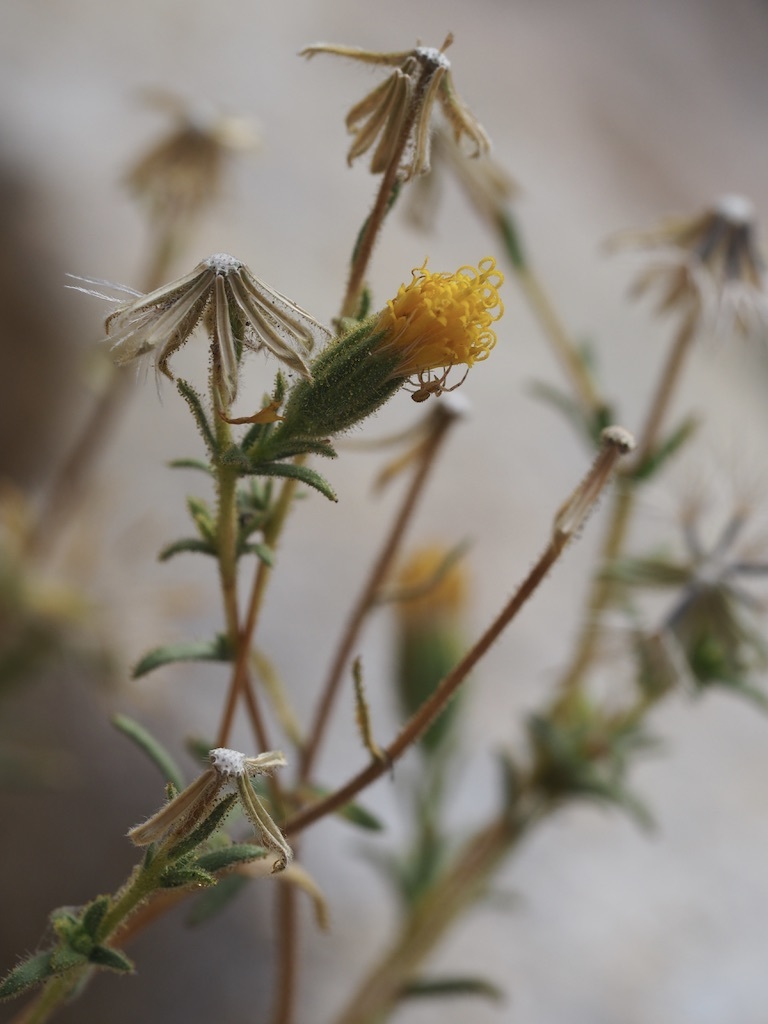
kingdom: Plantae
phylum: Tracheophyta
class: Magnoliopsida
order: Asterales
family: Asteraceae
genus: Carlquistia
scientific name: Carlquistia muirii
